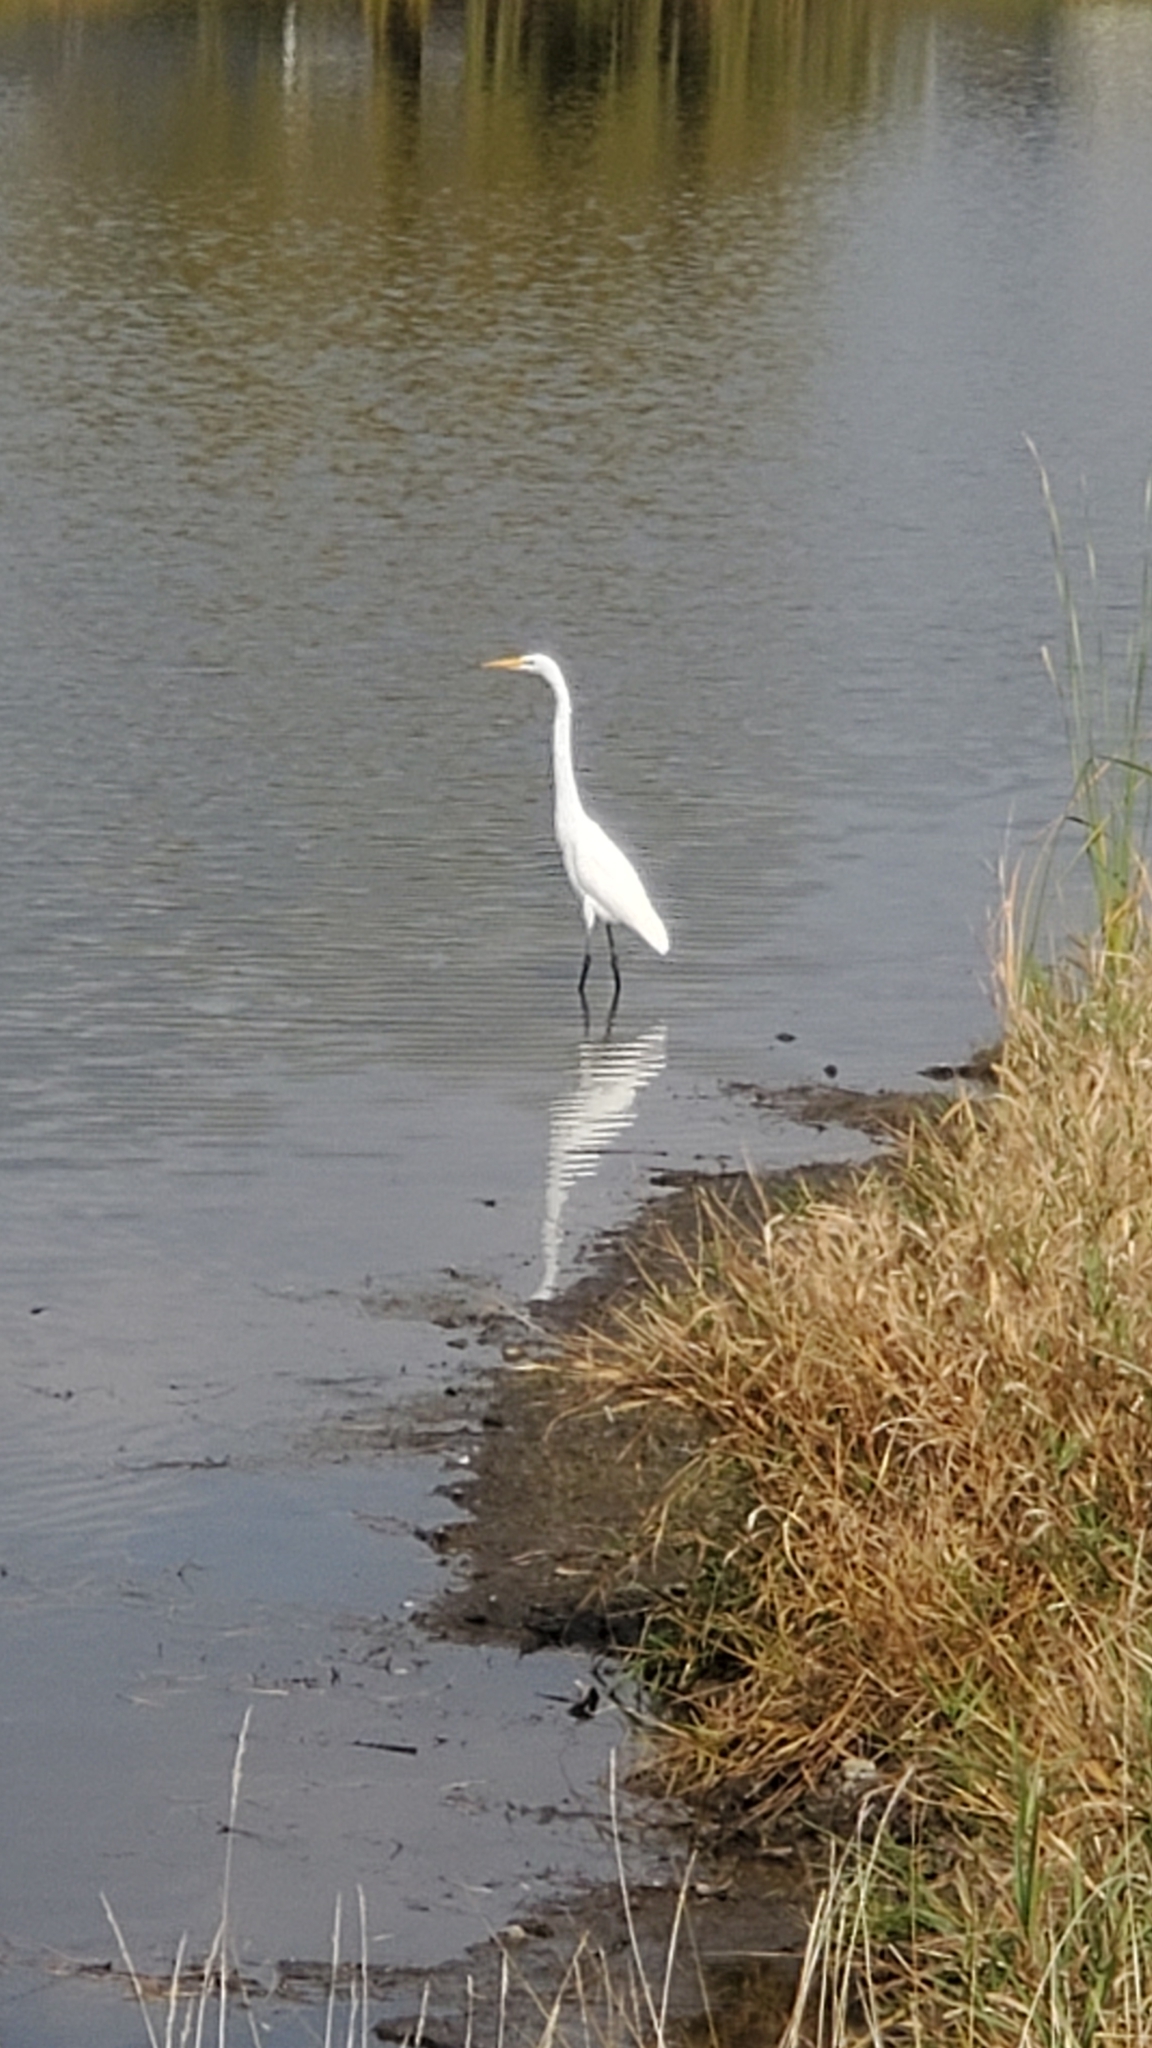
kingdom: Animalia
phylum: Chordata
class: Aves
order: Pelecaniformes
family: Ardeidae
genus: Ardea
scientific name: Ardea alba
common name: Great egret
